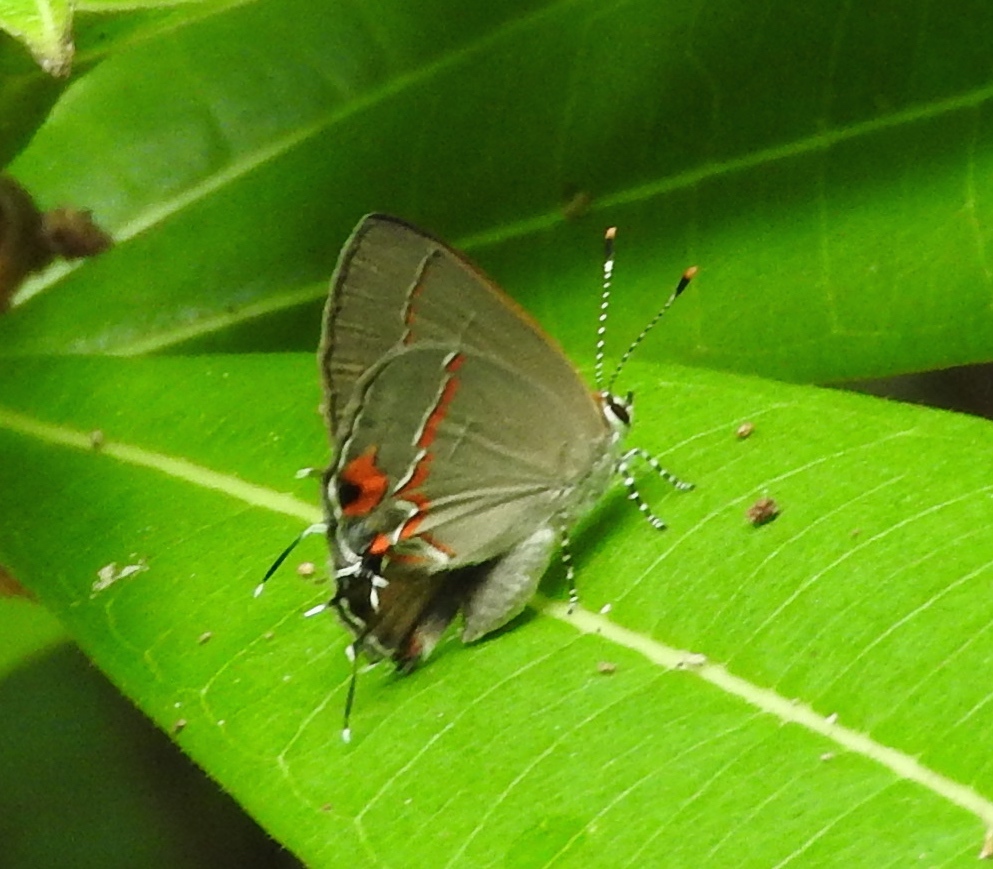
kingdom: Animalia
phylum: Arthropoda
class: Insecta
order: Lepidoptera
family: Lycaenidae
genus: Electrostrymon
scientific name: Electrostrymon endymion
